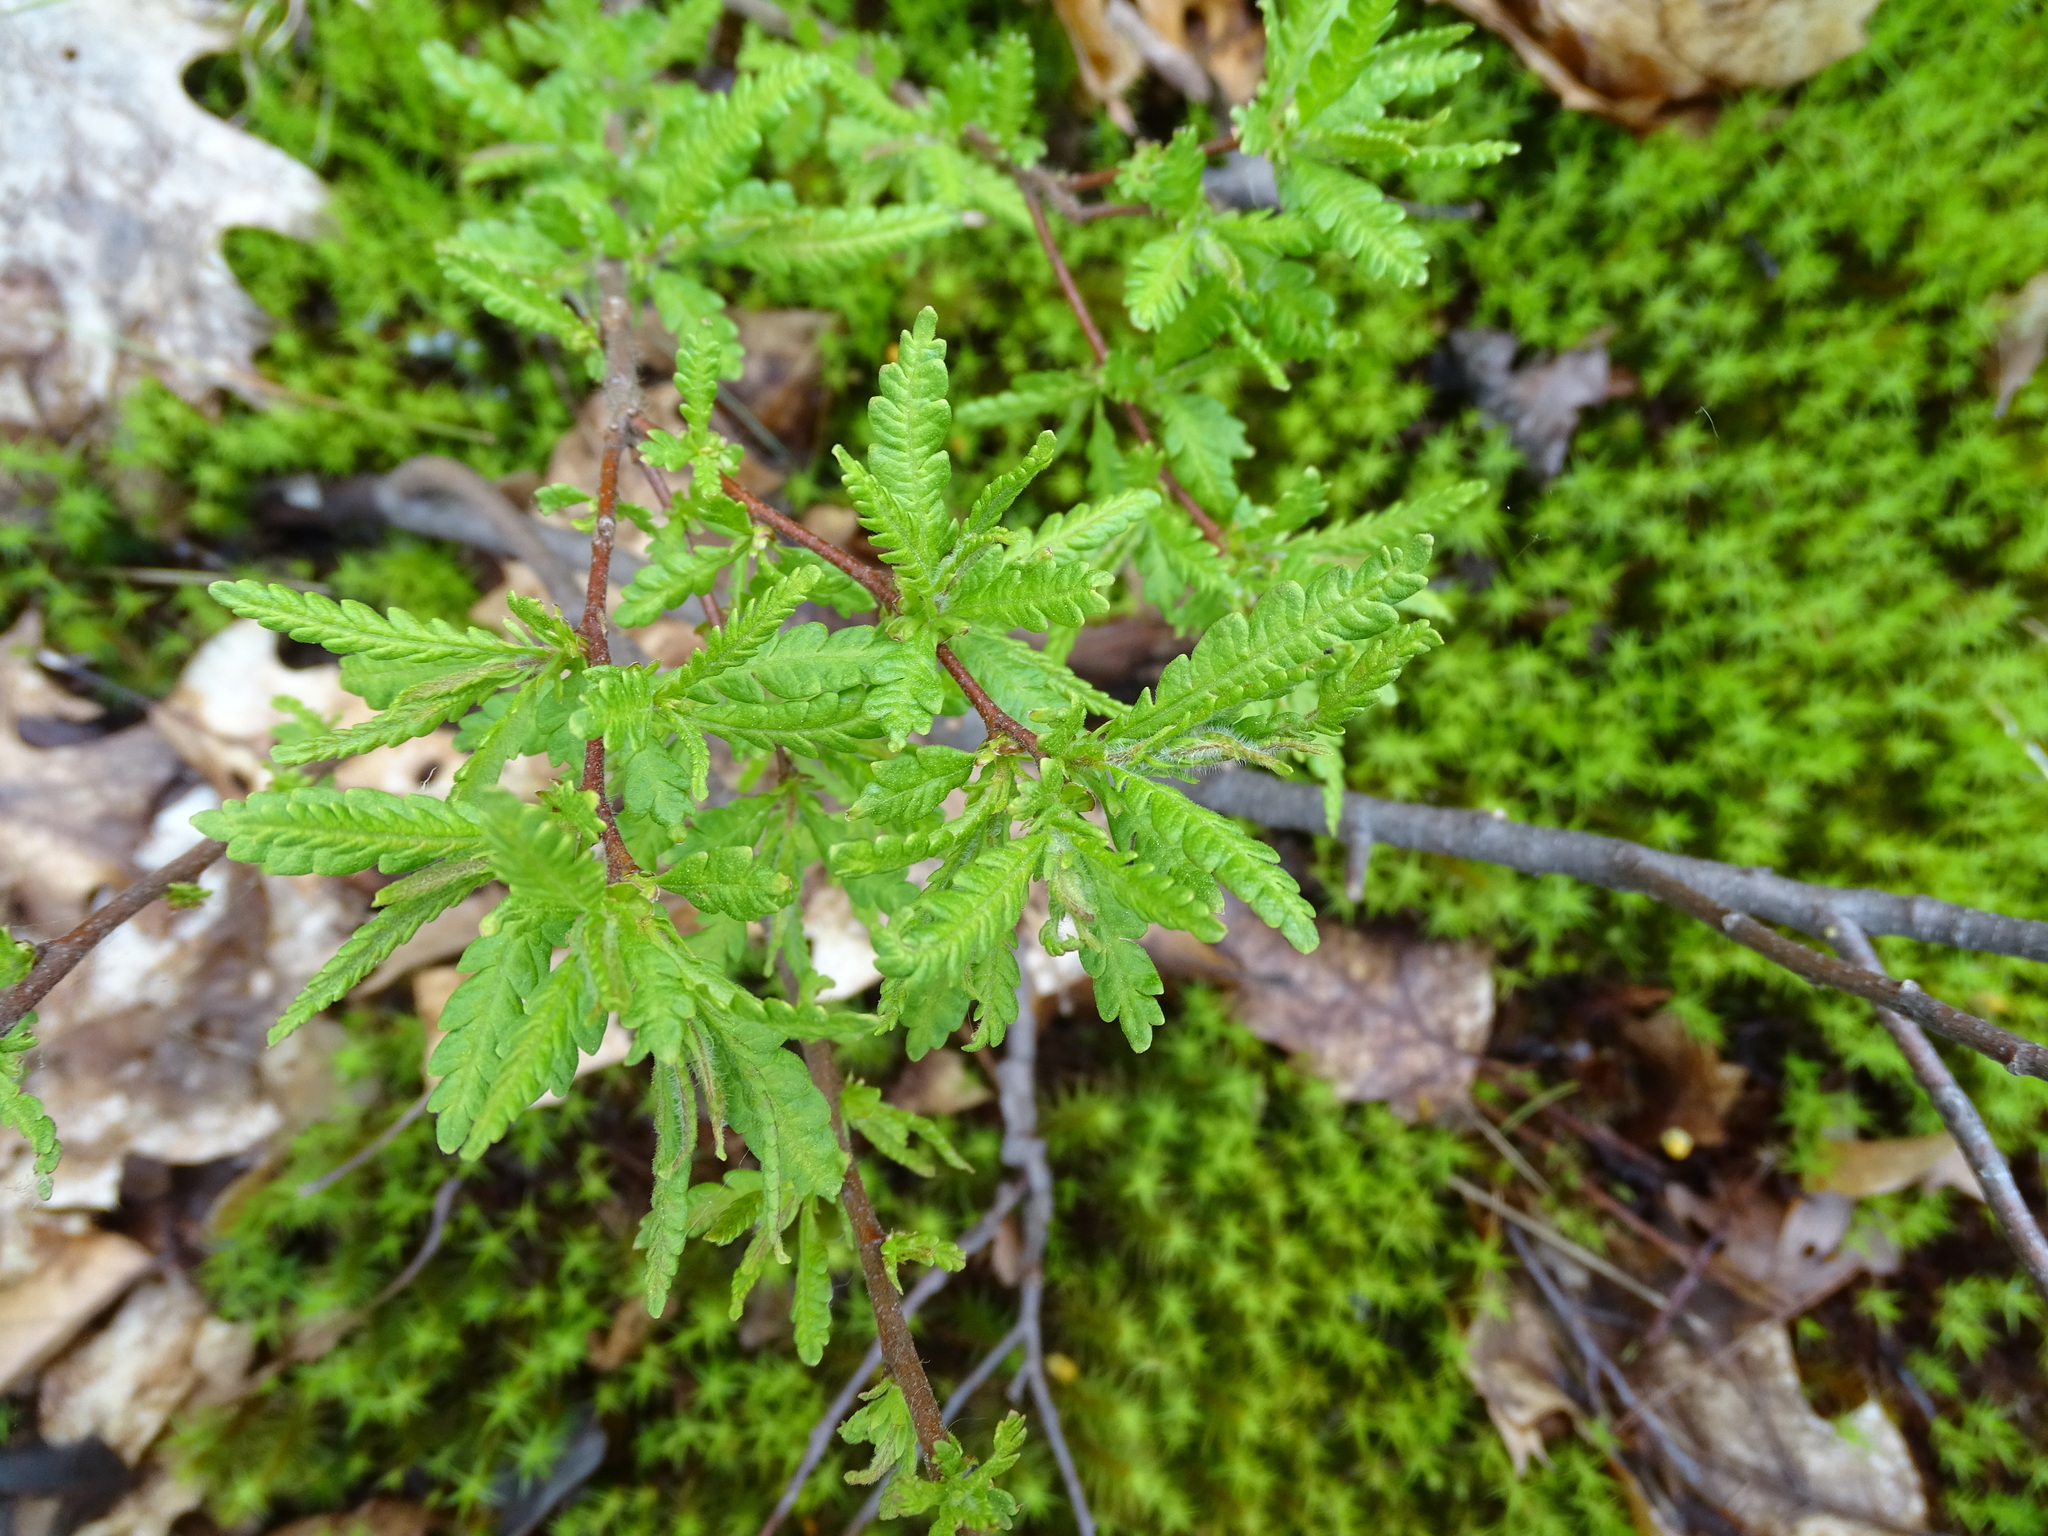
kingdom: Plantae
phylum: Tracheophyta
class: Magnoliopsida
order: Fagales
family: Myricaceae
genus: Comptonia
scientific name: Comptonia peregrina
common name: Sweet-fern
